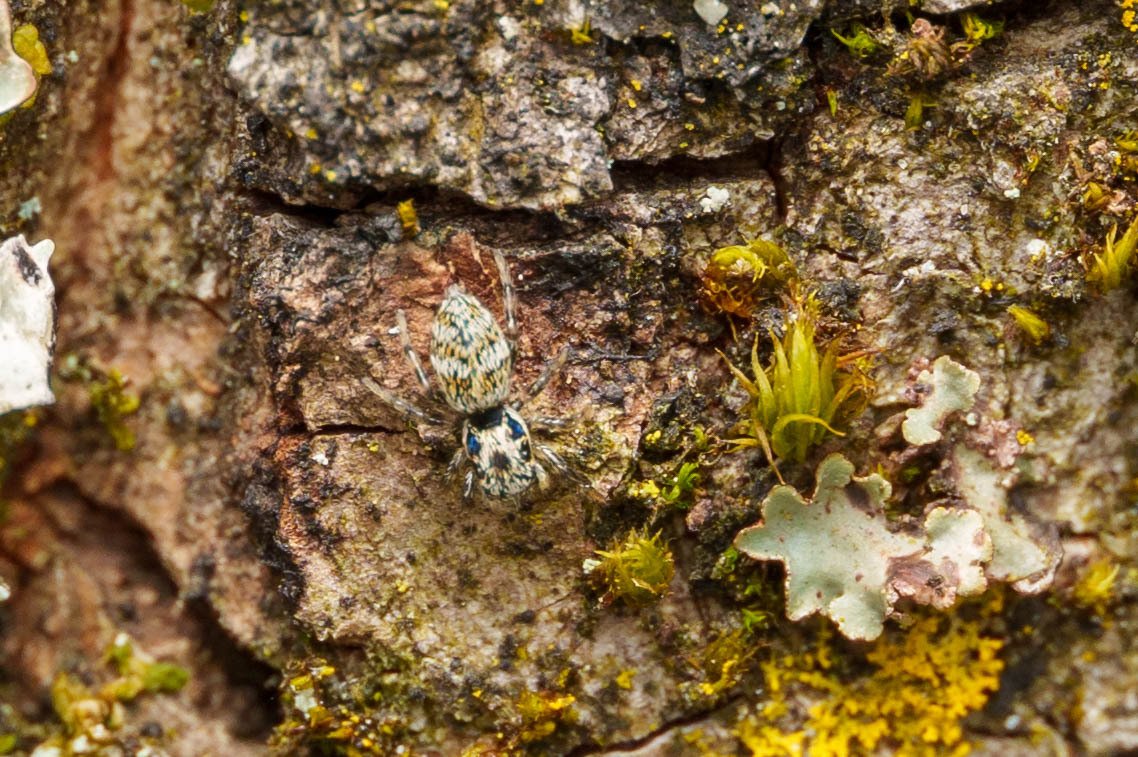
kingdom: Animalia
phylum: Arthropoda
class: Arachnida
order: Araneae
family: Salticidae
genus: Salticus
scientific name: Salticus scenicus
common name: Zebra jumper
